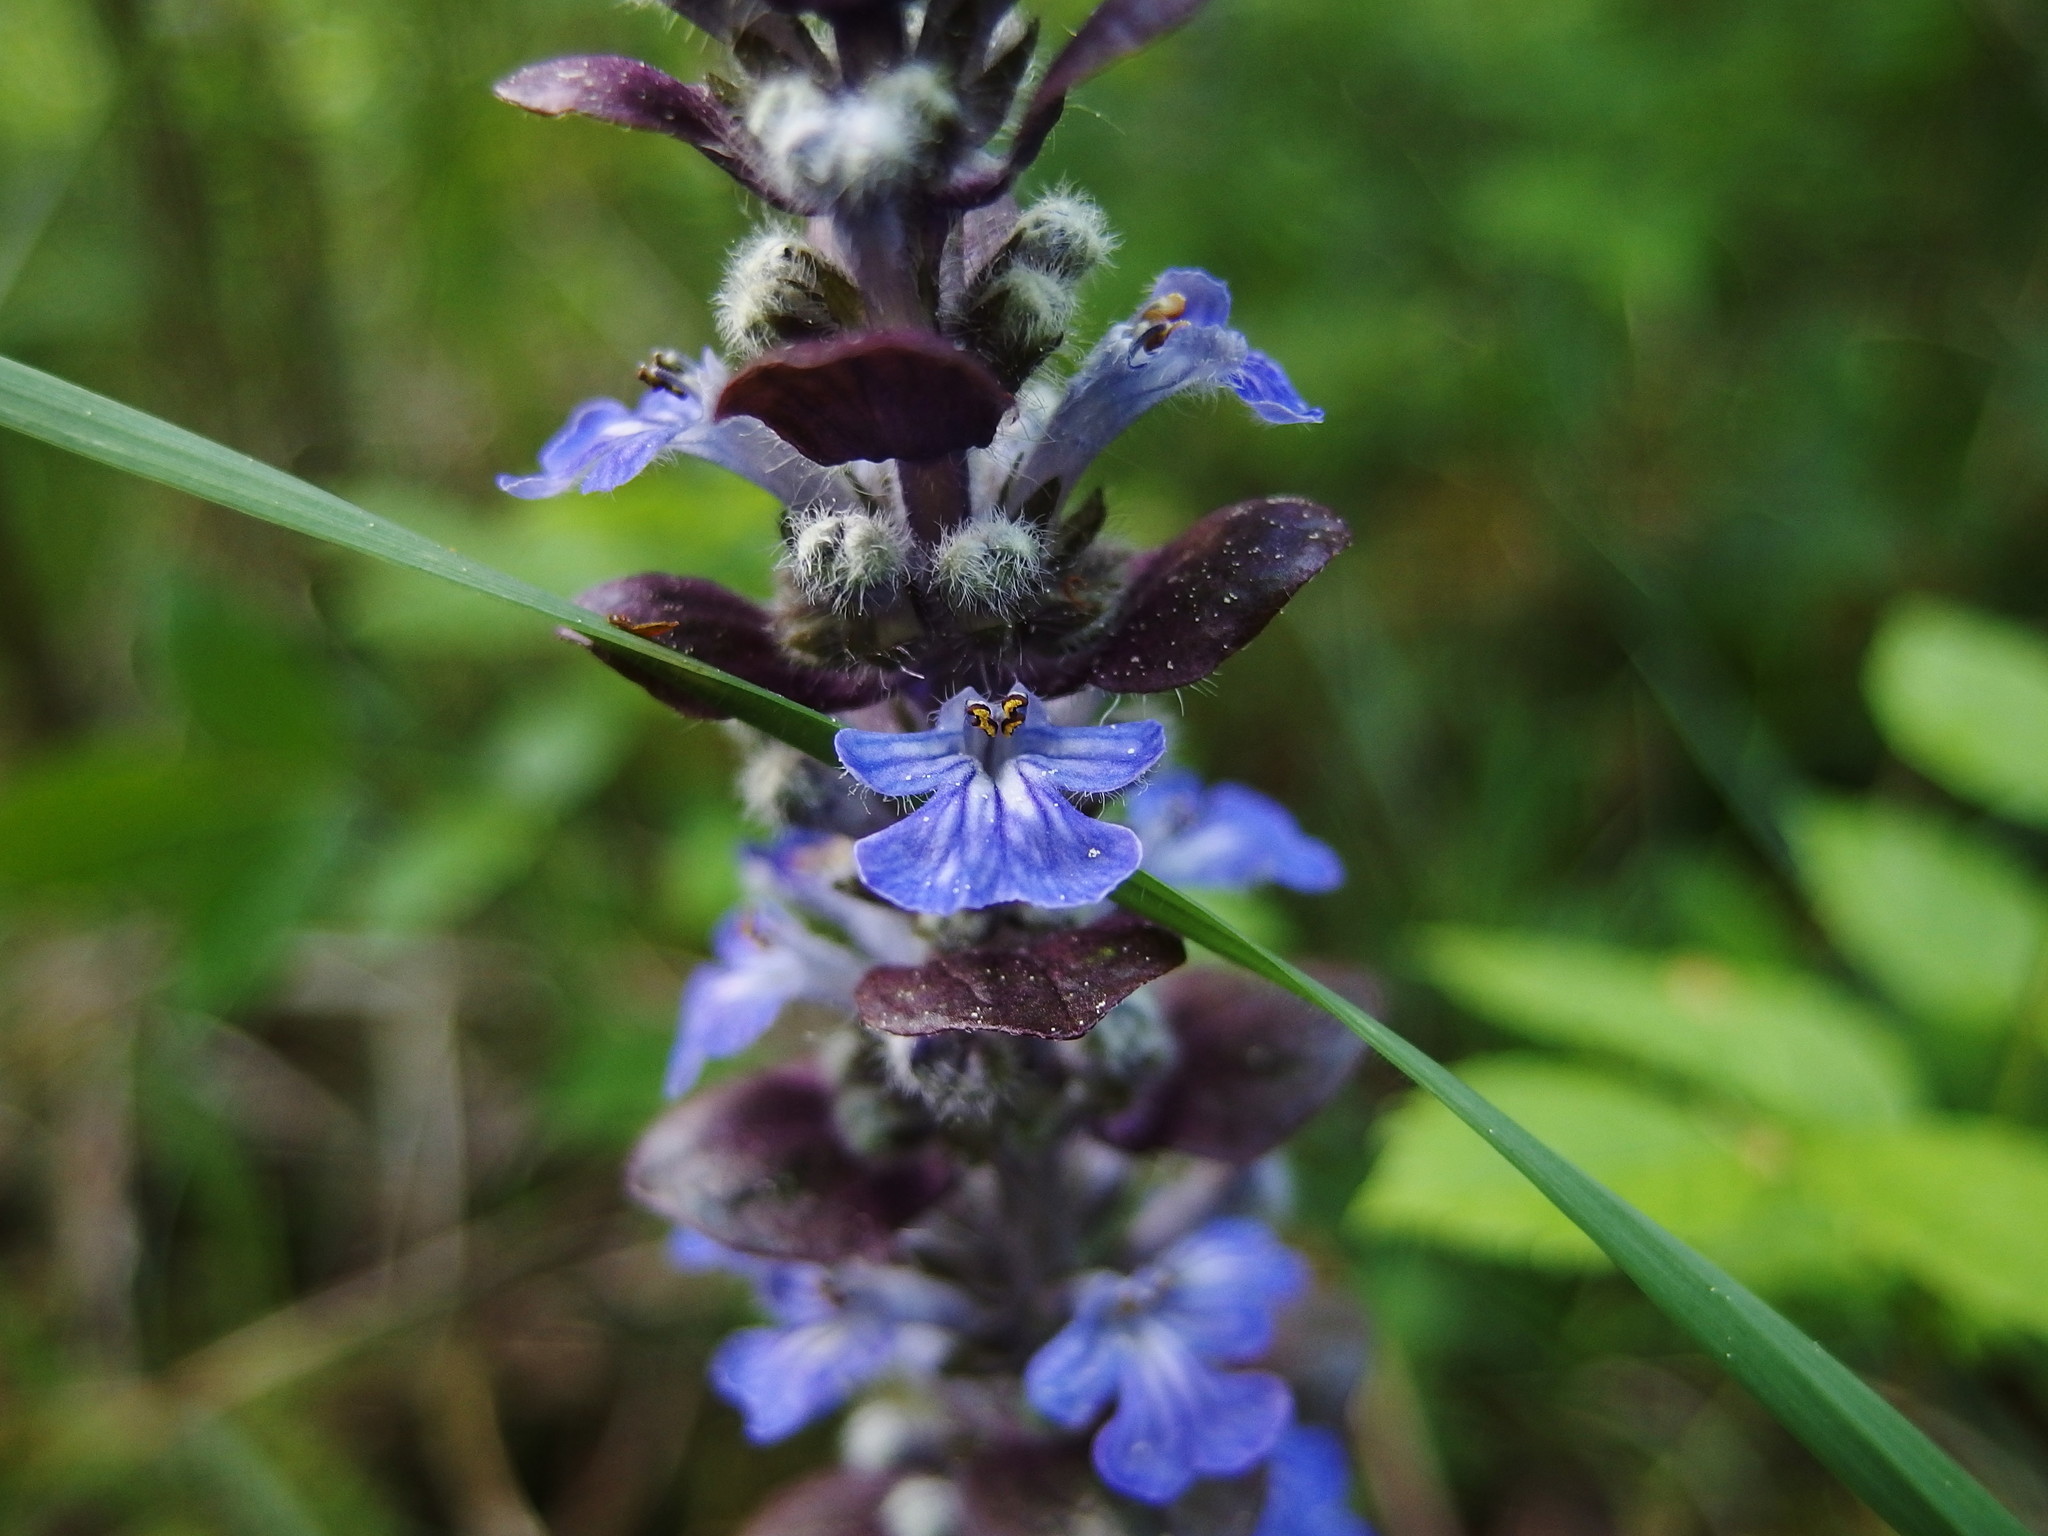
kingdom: Plantae
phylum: Tracheophyta
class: Magnoliopsida
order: Lamiales
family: Lamiaceae
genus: Ajuga
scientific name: Ajuga reptans
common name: Bugle
